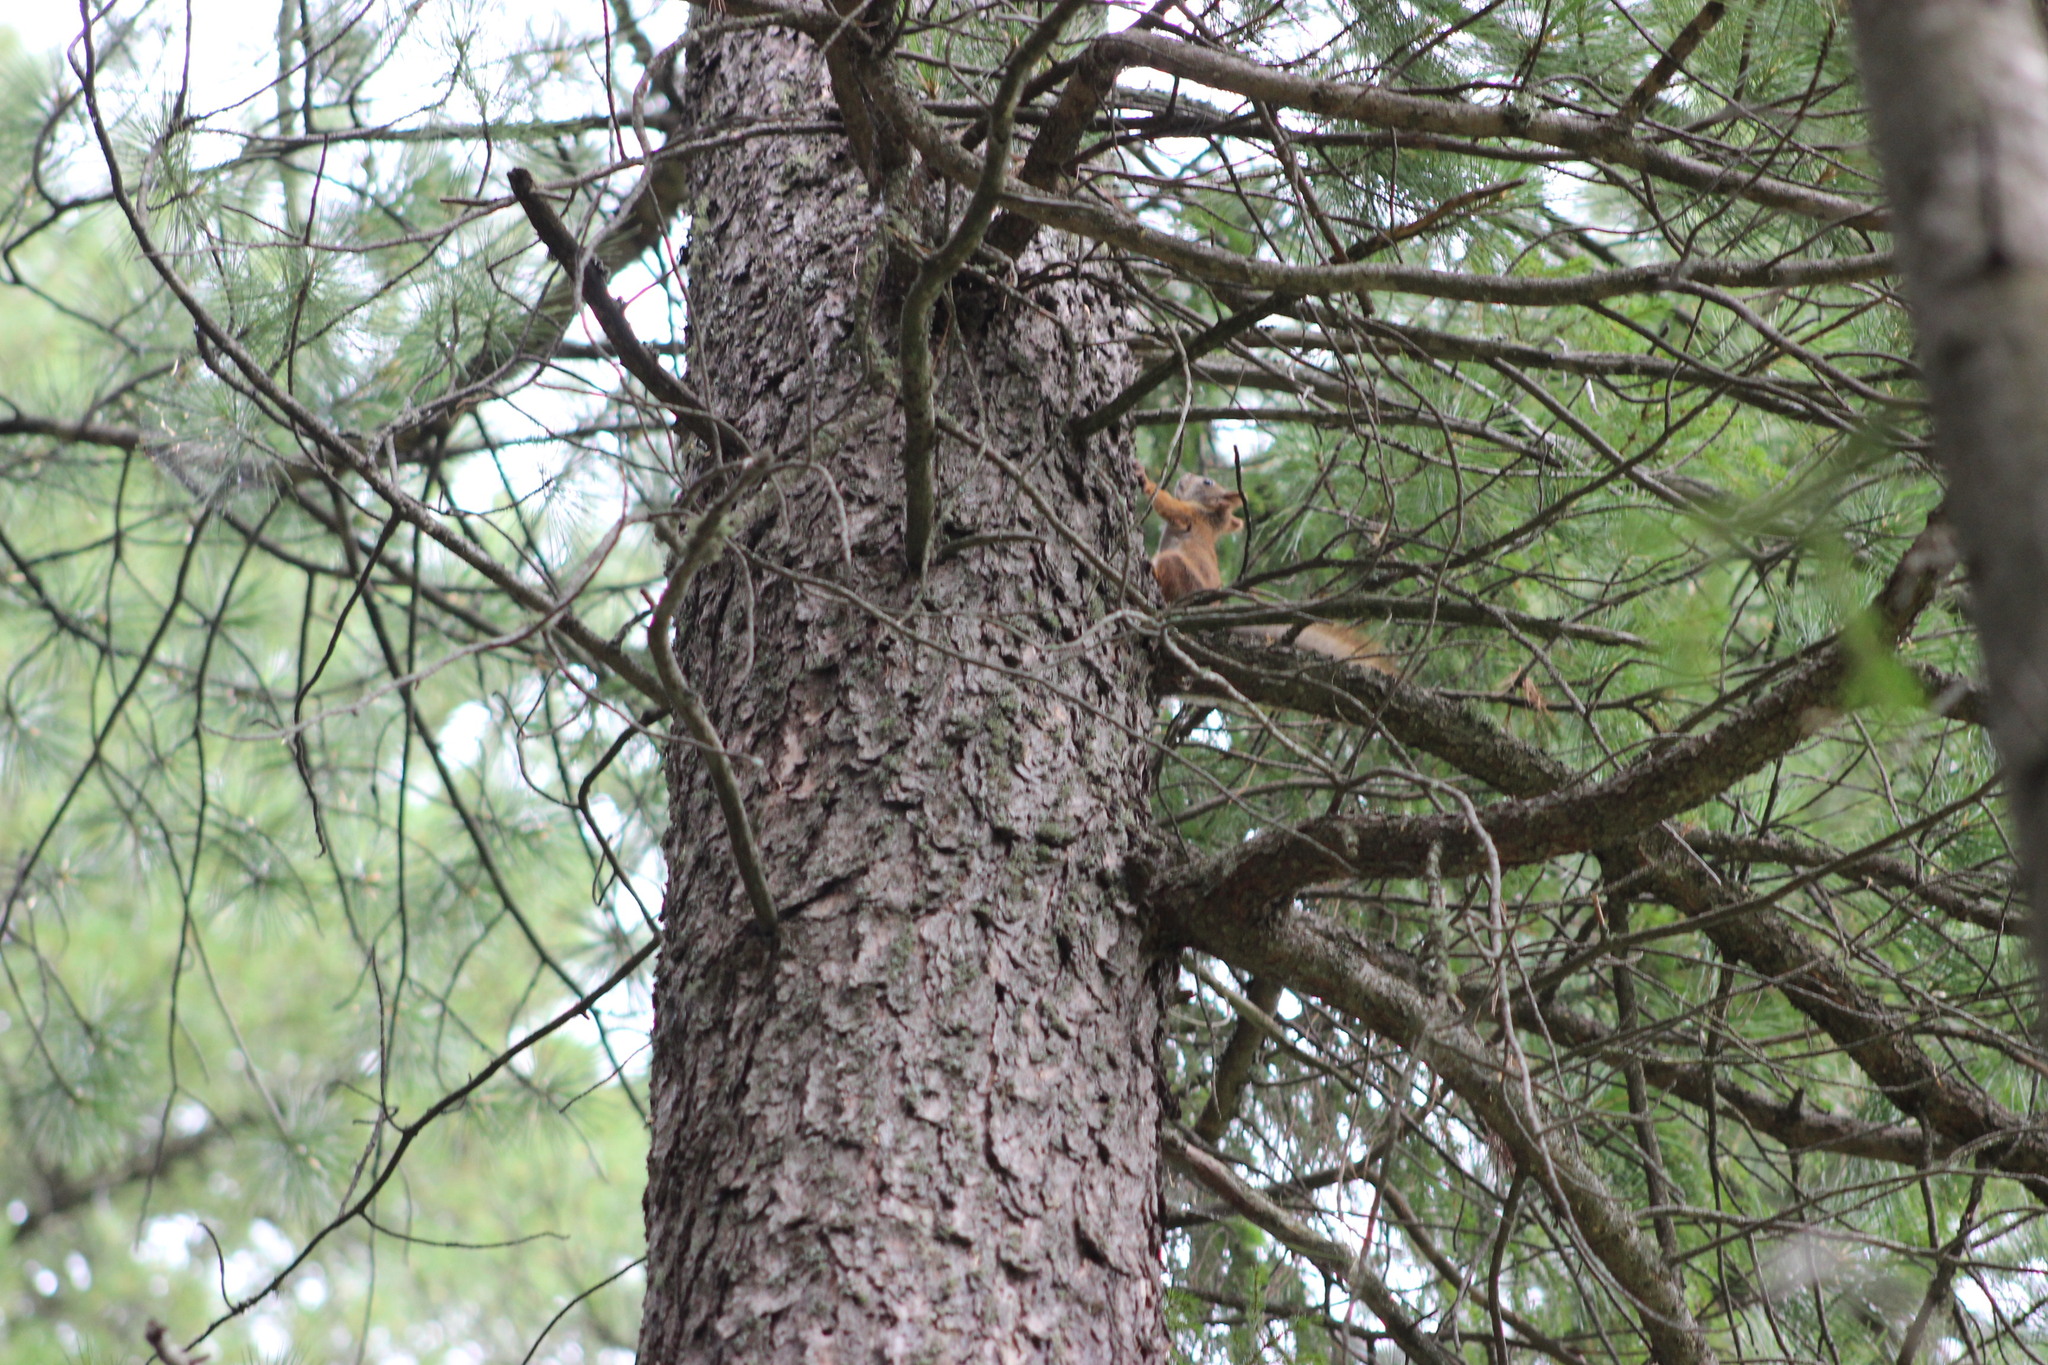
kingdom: Animalia
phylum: Chordata
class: Mammalia
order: Rodentia
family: Sciuridae
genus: Sciurus
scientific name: Sciurus vulgaris
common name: Eurasian red squirrel
